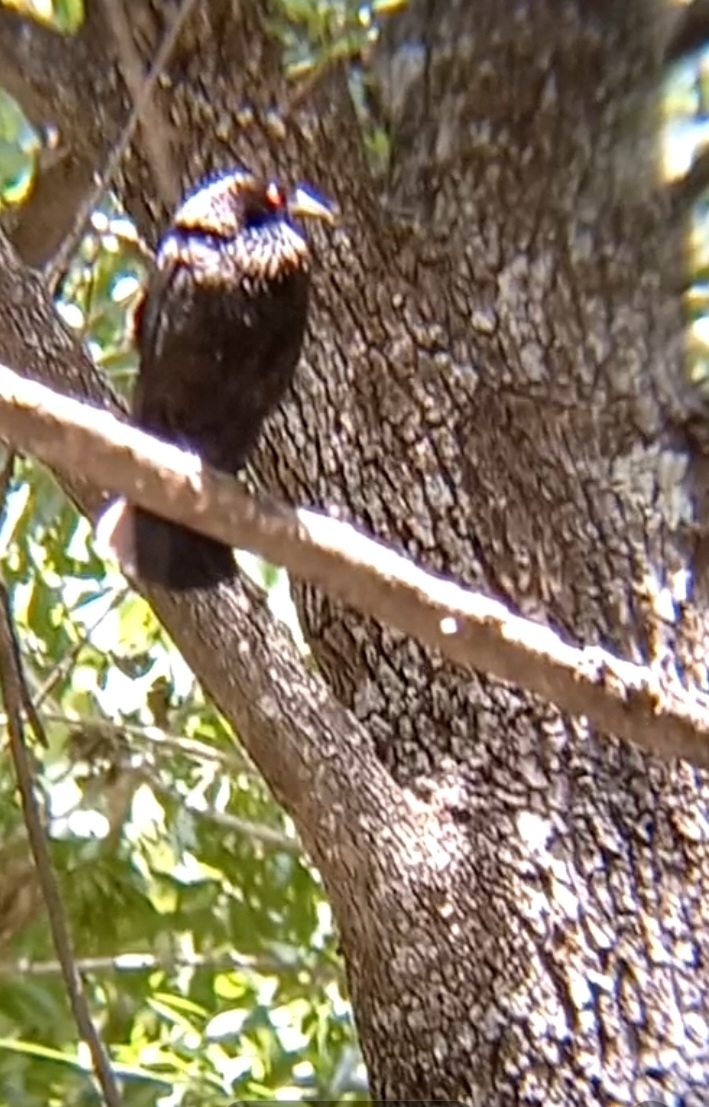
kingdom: Animalia
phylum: Chordata
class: Aves
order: Passeriformes
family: Icteridae
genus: Molothrus
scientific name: Molothrus aeneus
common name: Bronzed cowbird
